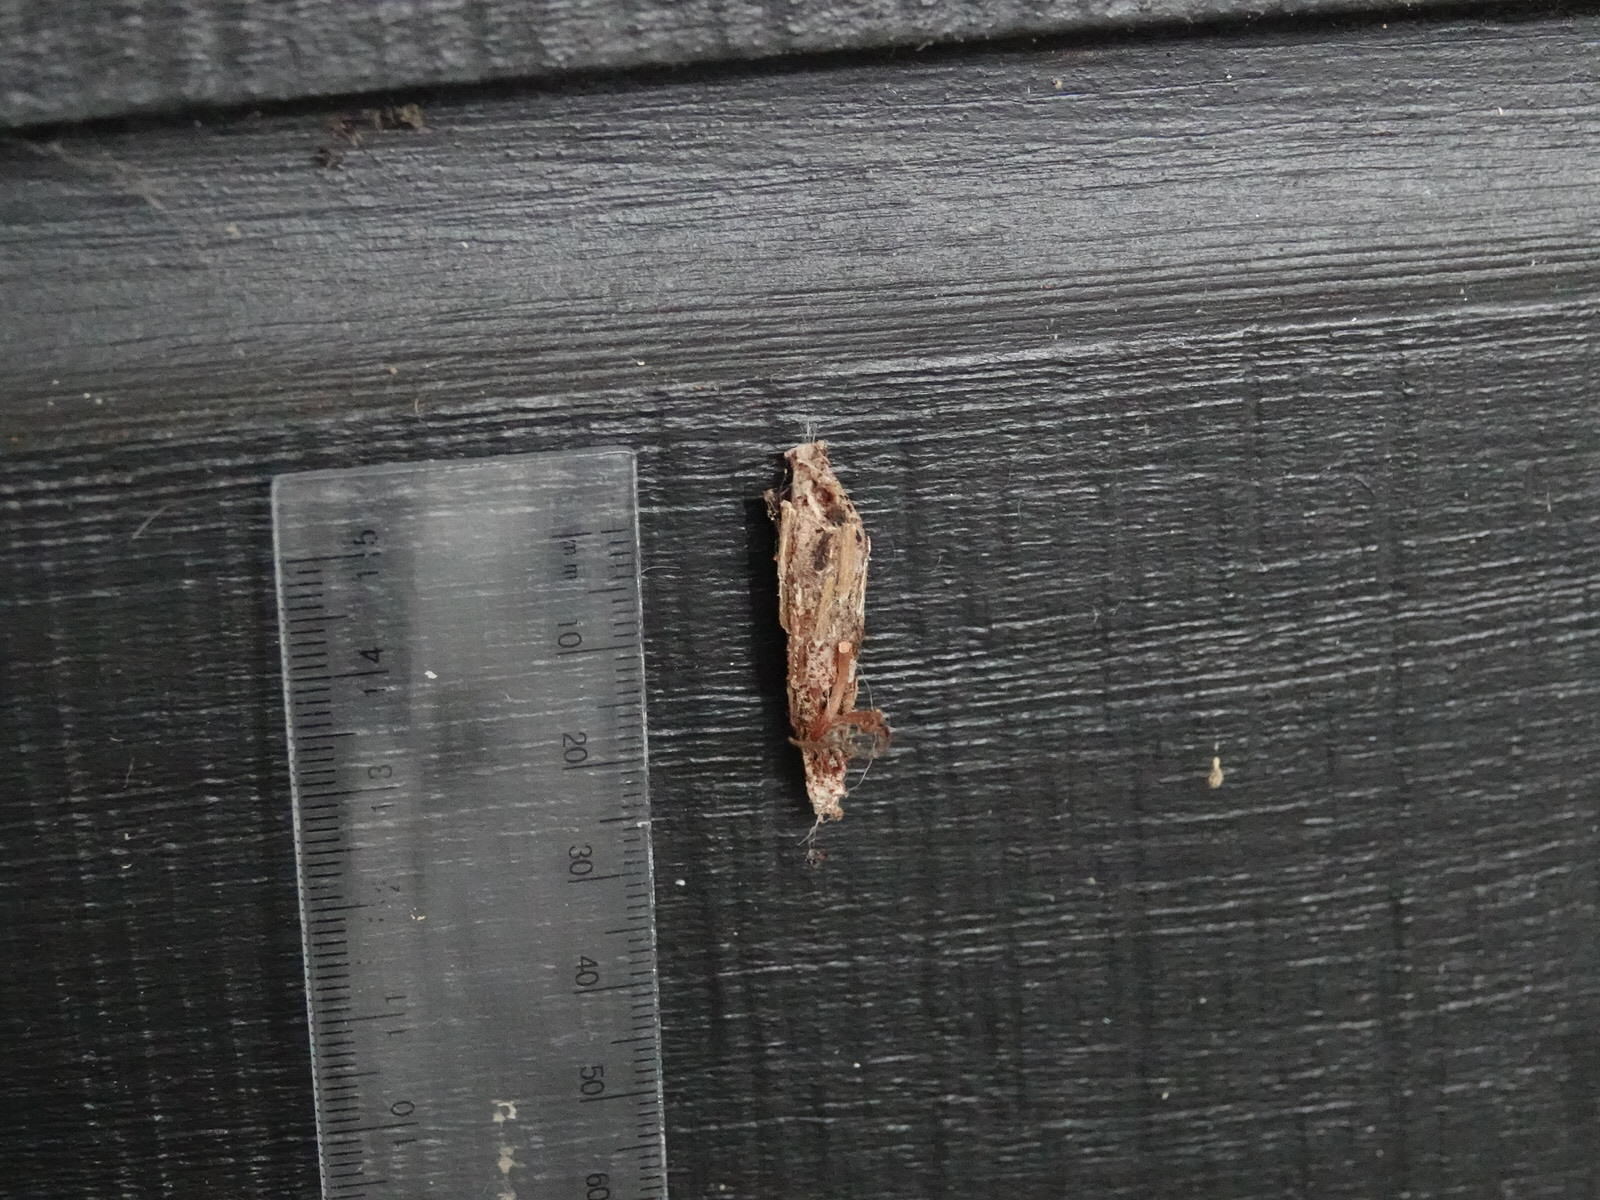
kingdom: Animalia
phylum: Arthropoda
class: Insecta
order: Lepidoptera
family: Psychidae
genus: Liothula
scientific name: Liothula omnivora
